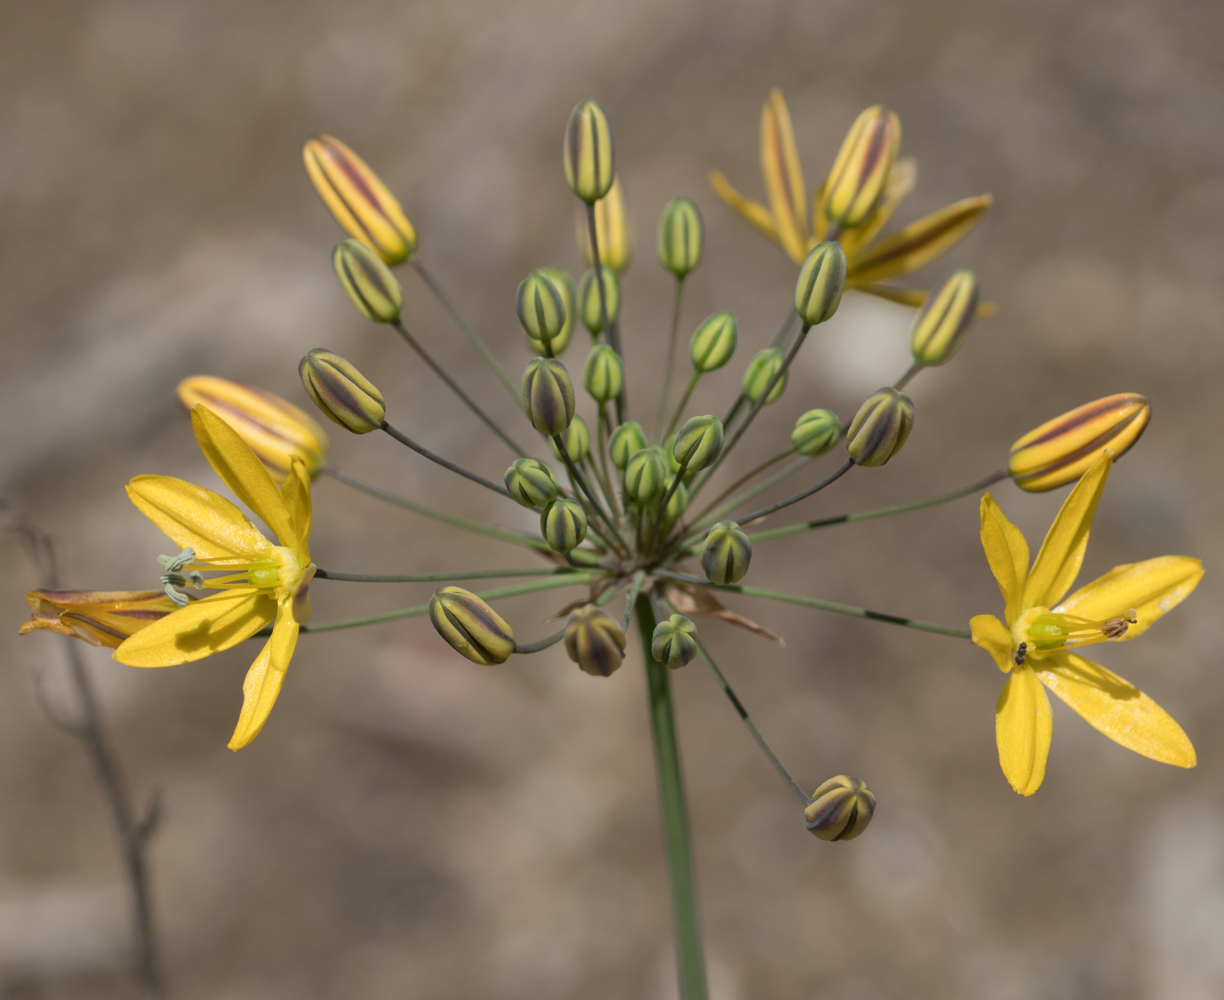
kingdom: Plantae
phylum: Tracheophyta
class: Liliopsida
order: Asparagales
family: Asparagaceae
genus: Bloomeria
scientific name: Bloomeria crocea
